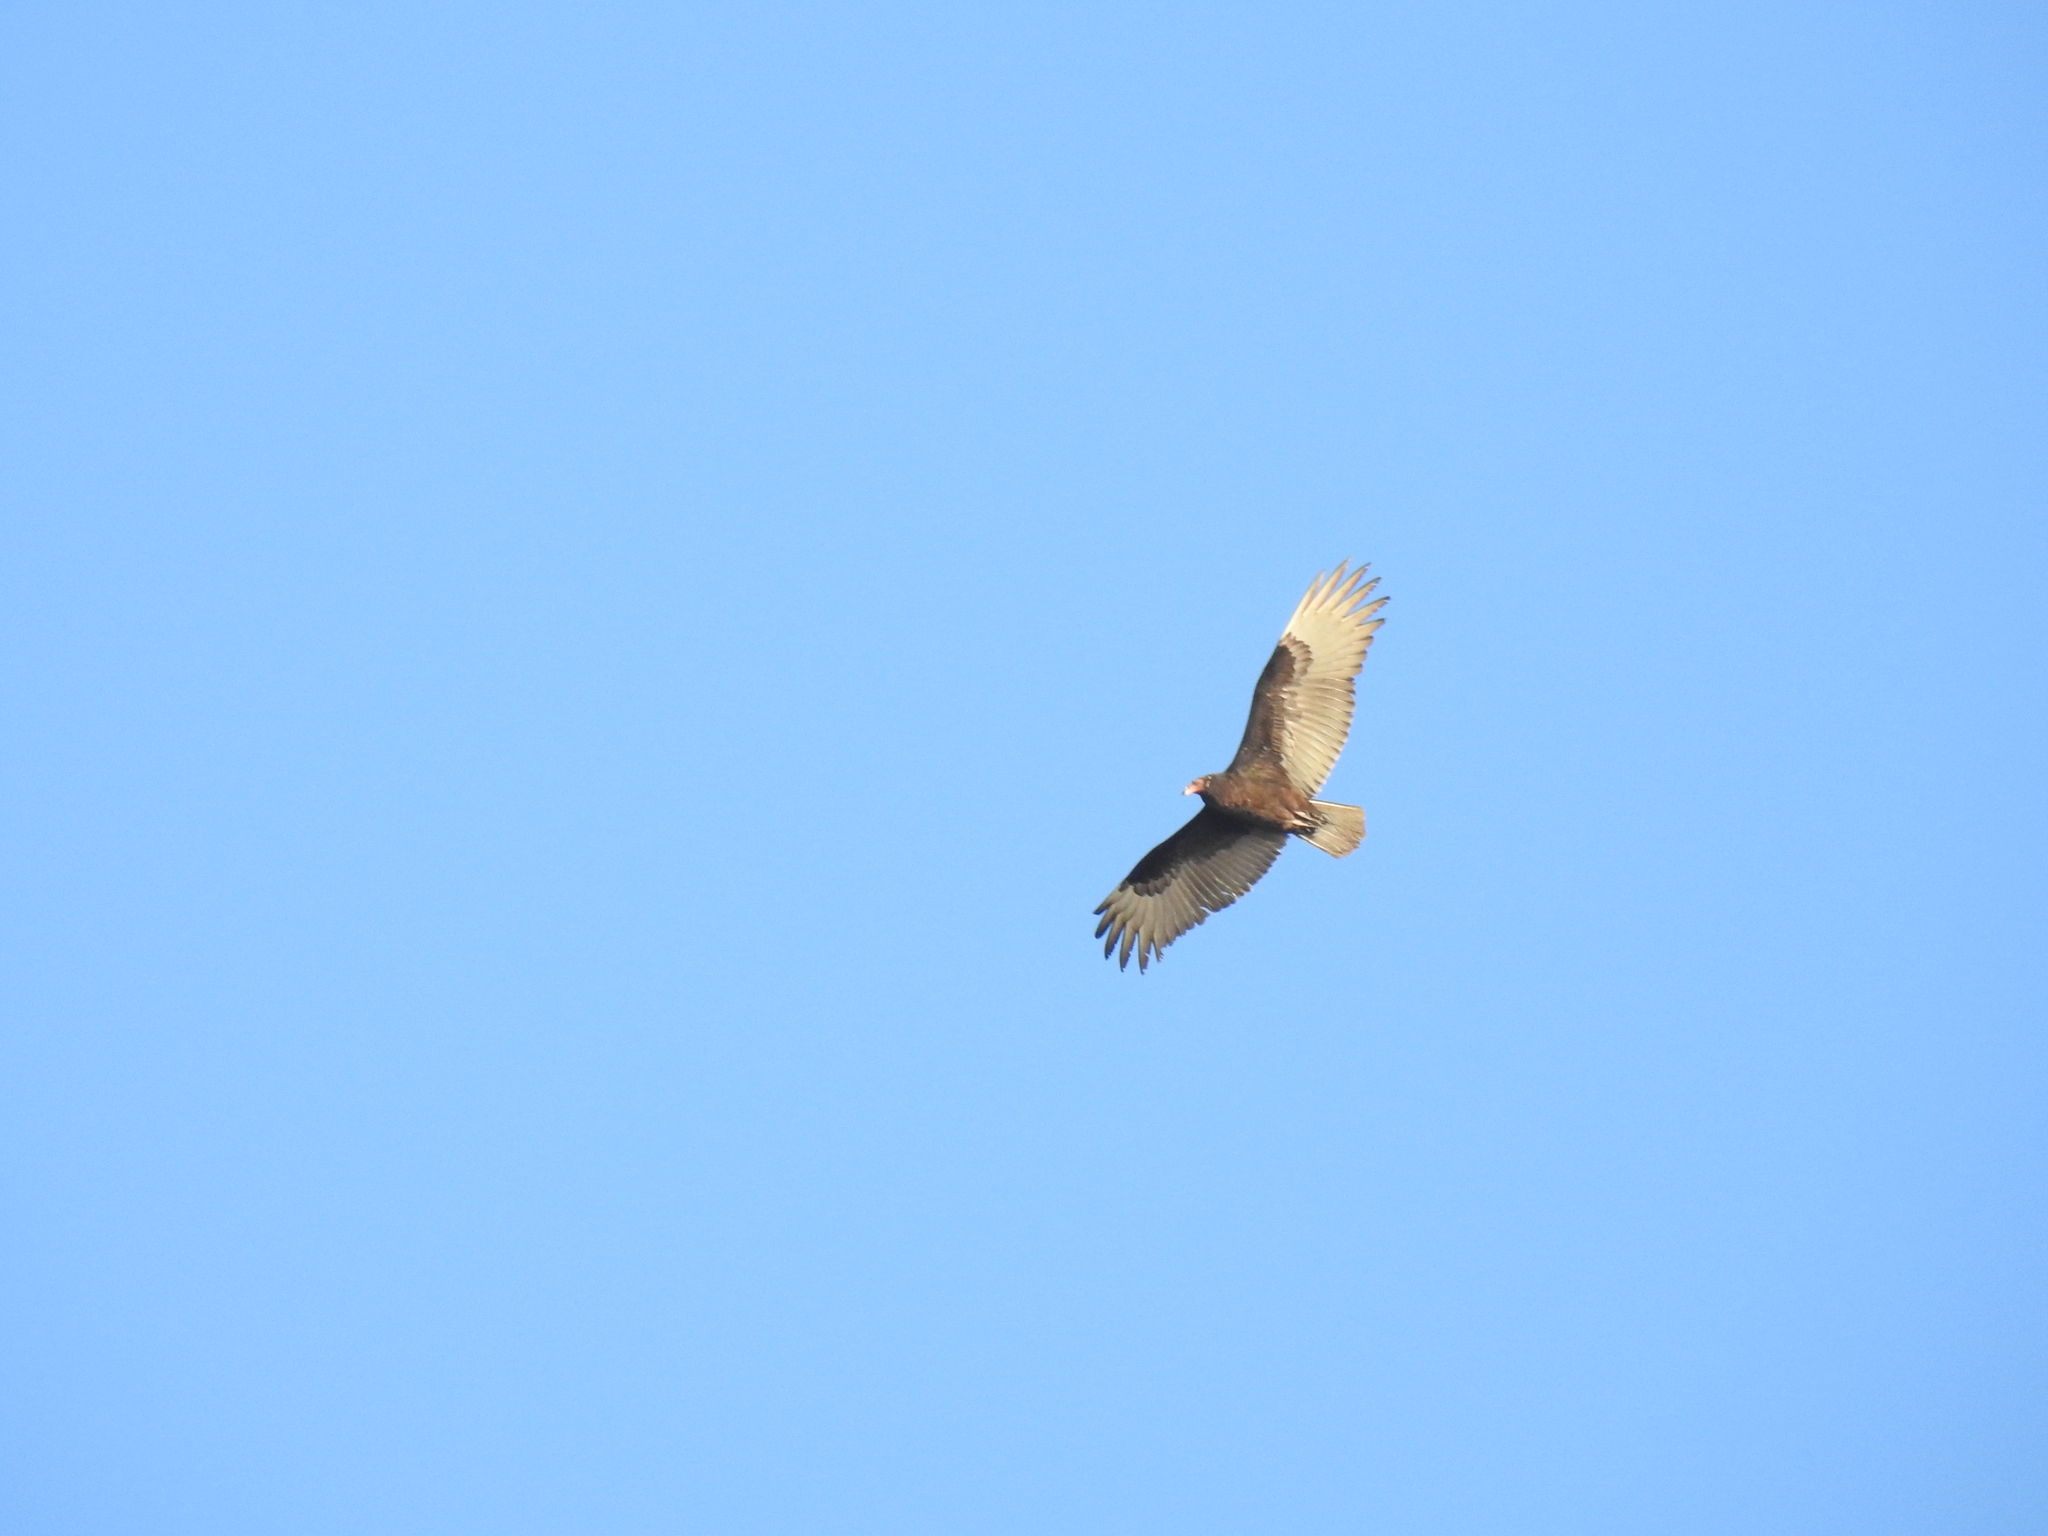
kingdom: Animalia
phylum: Chordata
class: Aves
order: Accipitriformes
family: Cathartidae
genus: Cathartes
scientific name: Cathartes aura
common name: Turkey vulture
